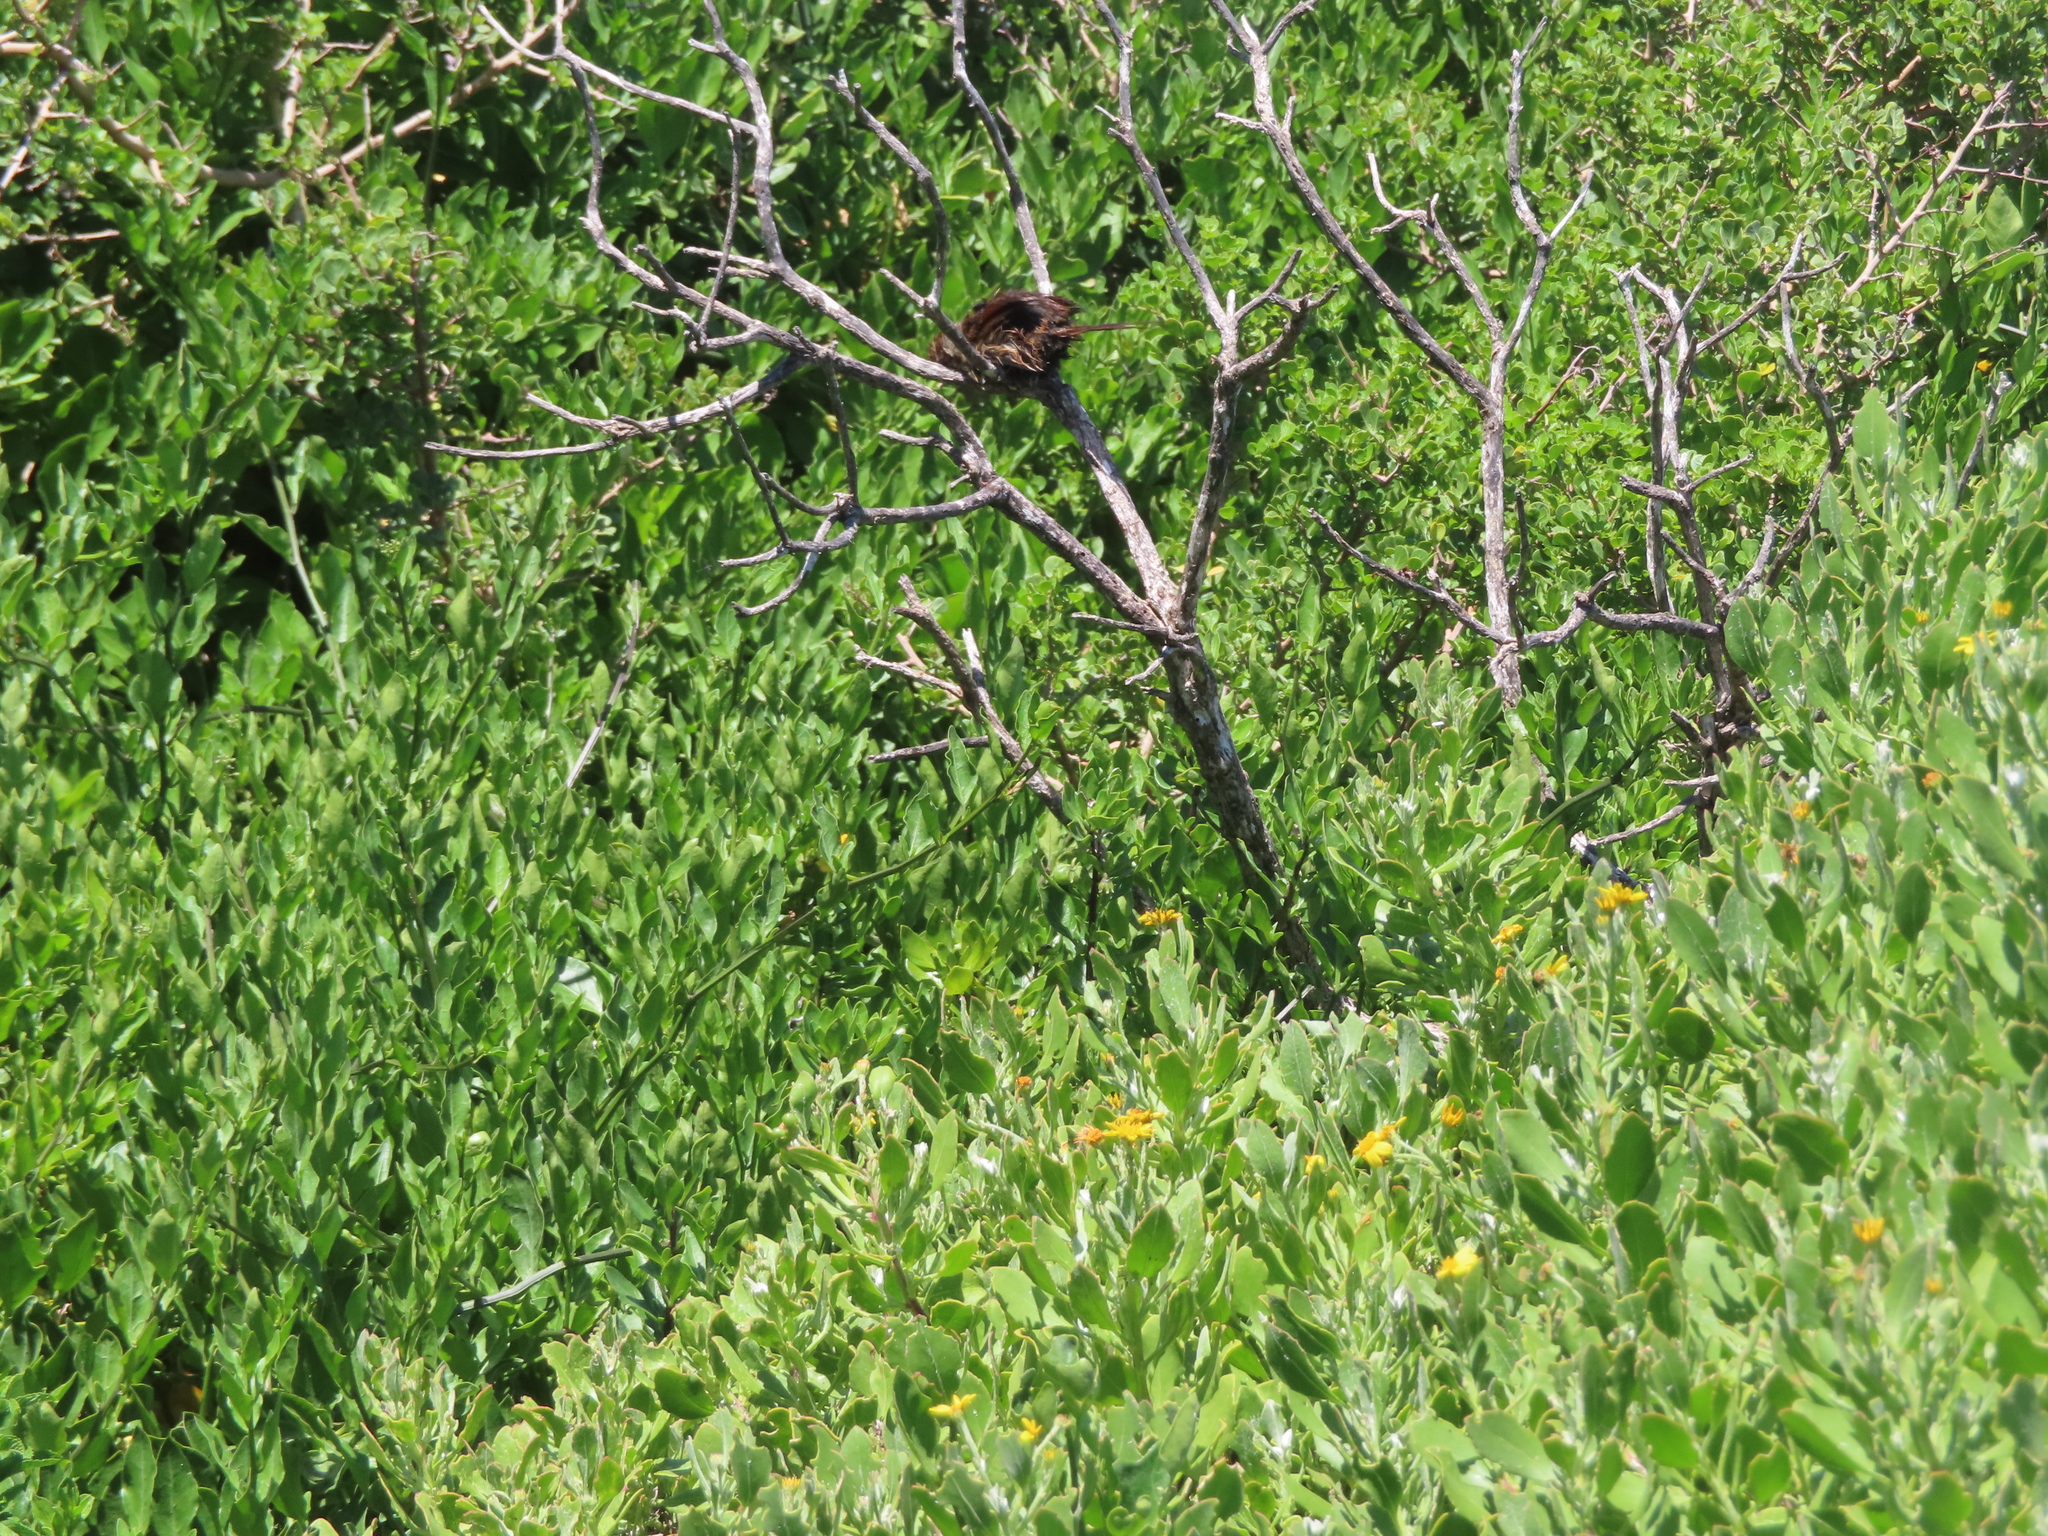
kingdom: Animalia
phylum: Chordata
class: Aves
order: Passeriformes
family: Macrosphenidae
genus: Sphenoeacus
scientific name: Sphenoeacus afer
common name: Cape grassbird
